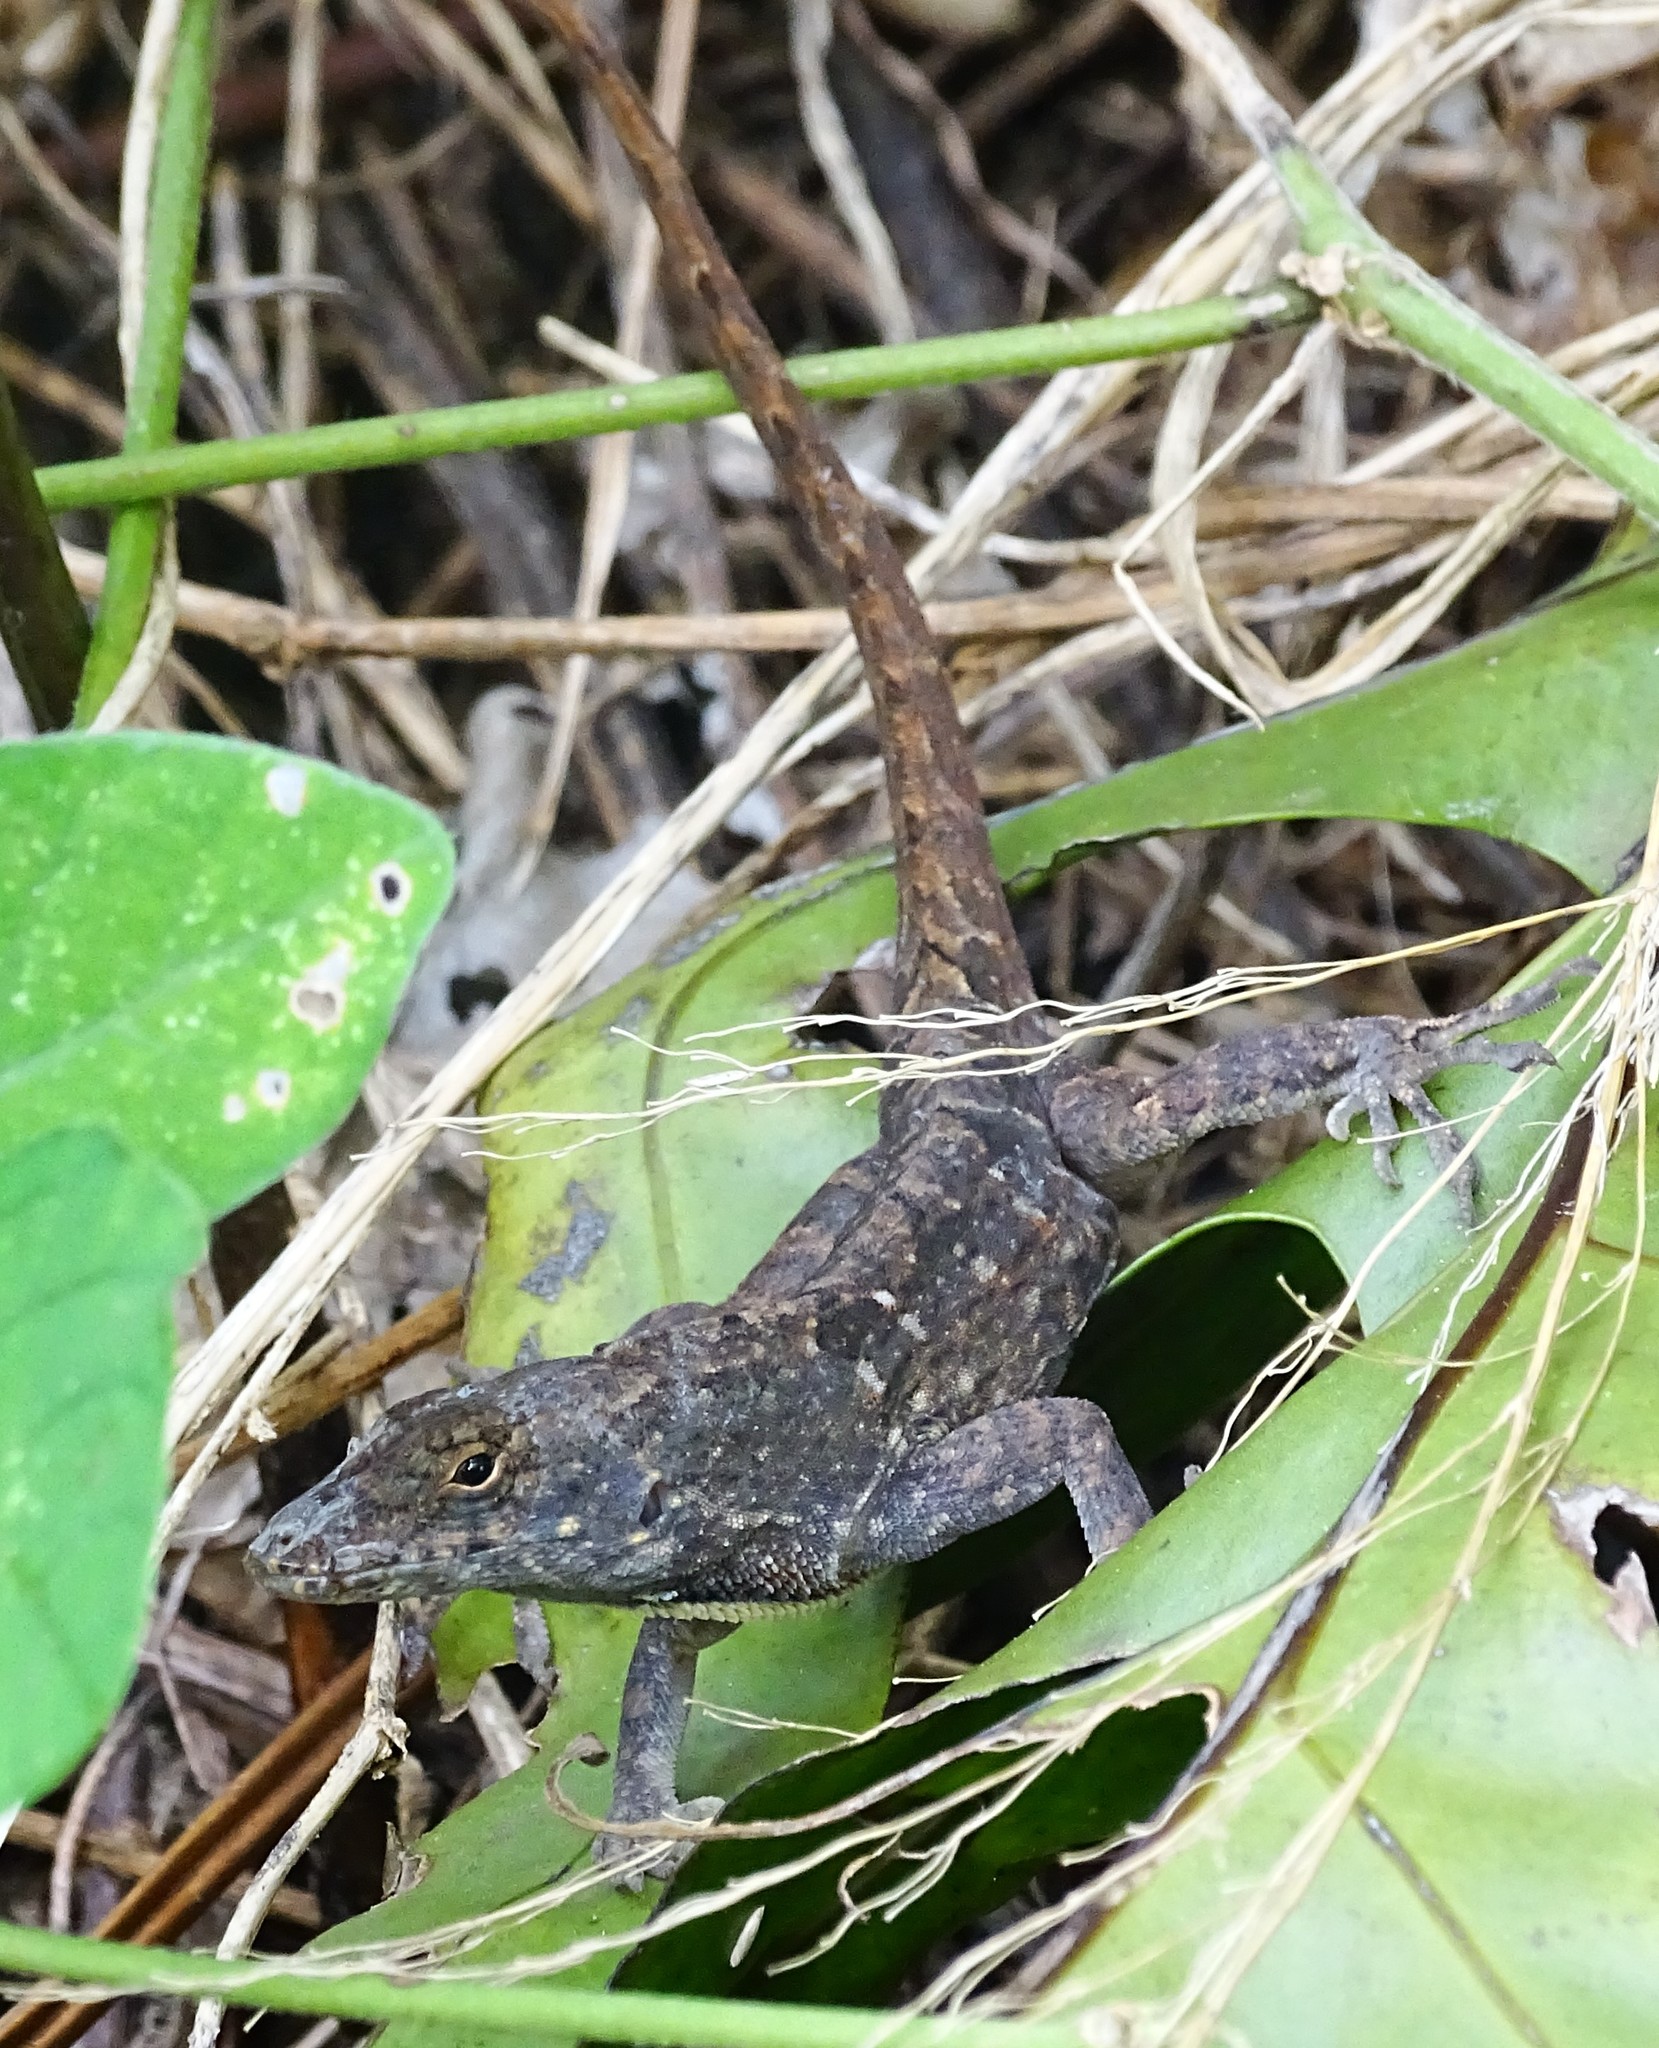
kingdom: Animalia
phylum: Chordata
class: Squamata
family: Dactyloidae
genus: Anolis
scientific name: Anolis sagrei
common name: Brown anole
